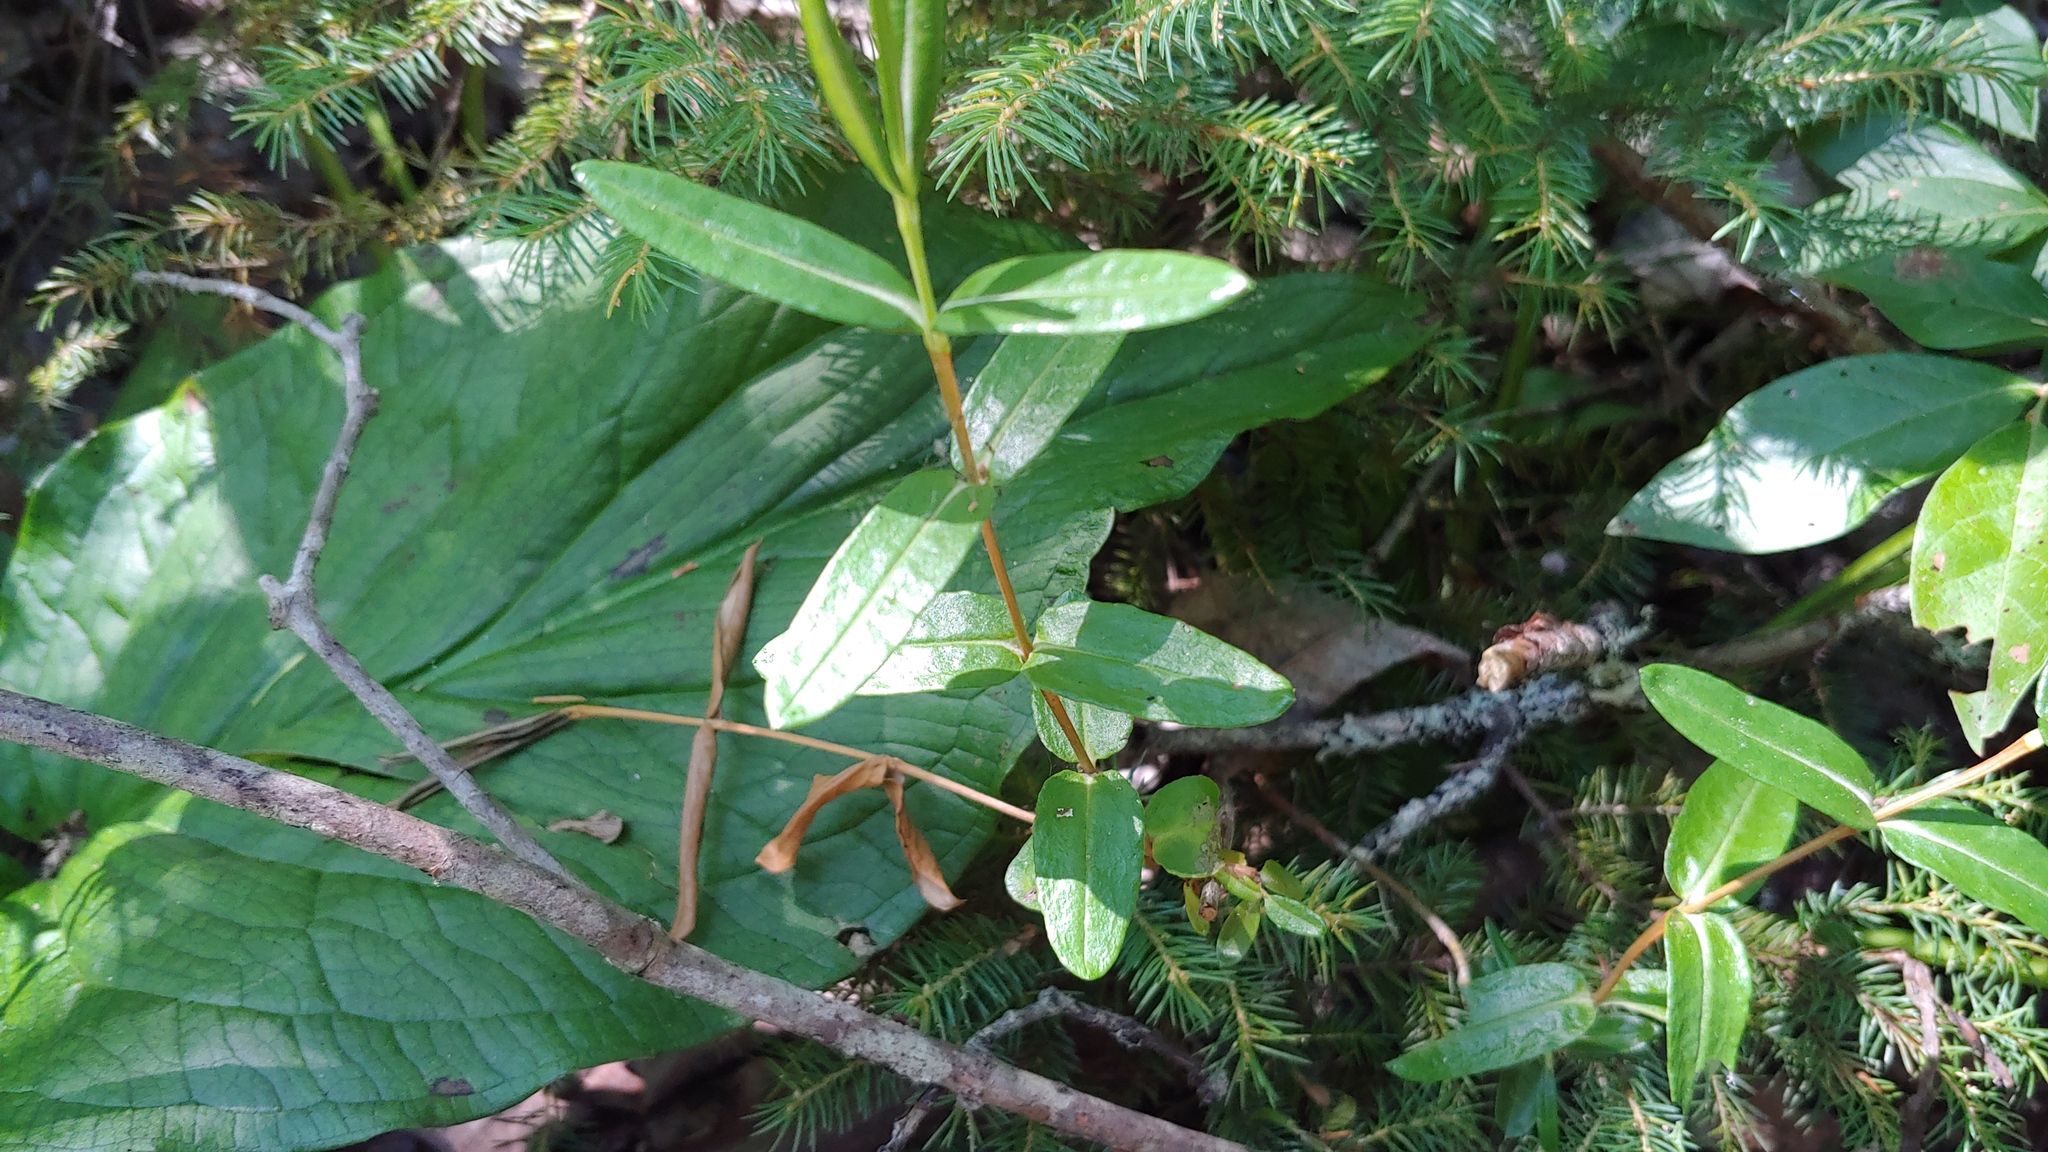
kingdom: Plantae
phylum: Tracheophyta
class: Magnoliopsida
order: Ericales
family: Ericaceae
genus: Kalmia
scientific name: Kalmia polifolia
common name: Bog-laurel
